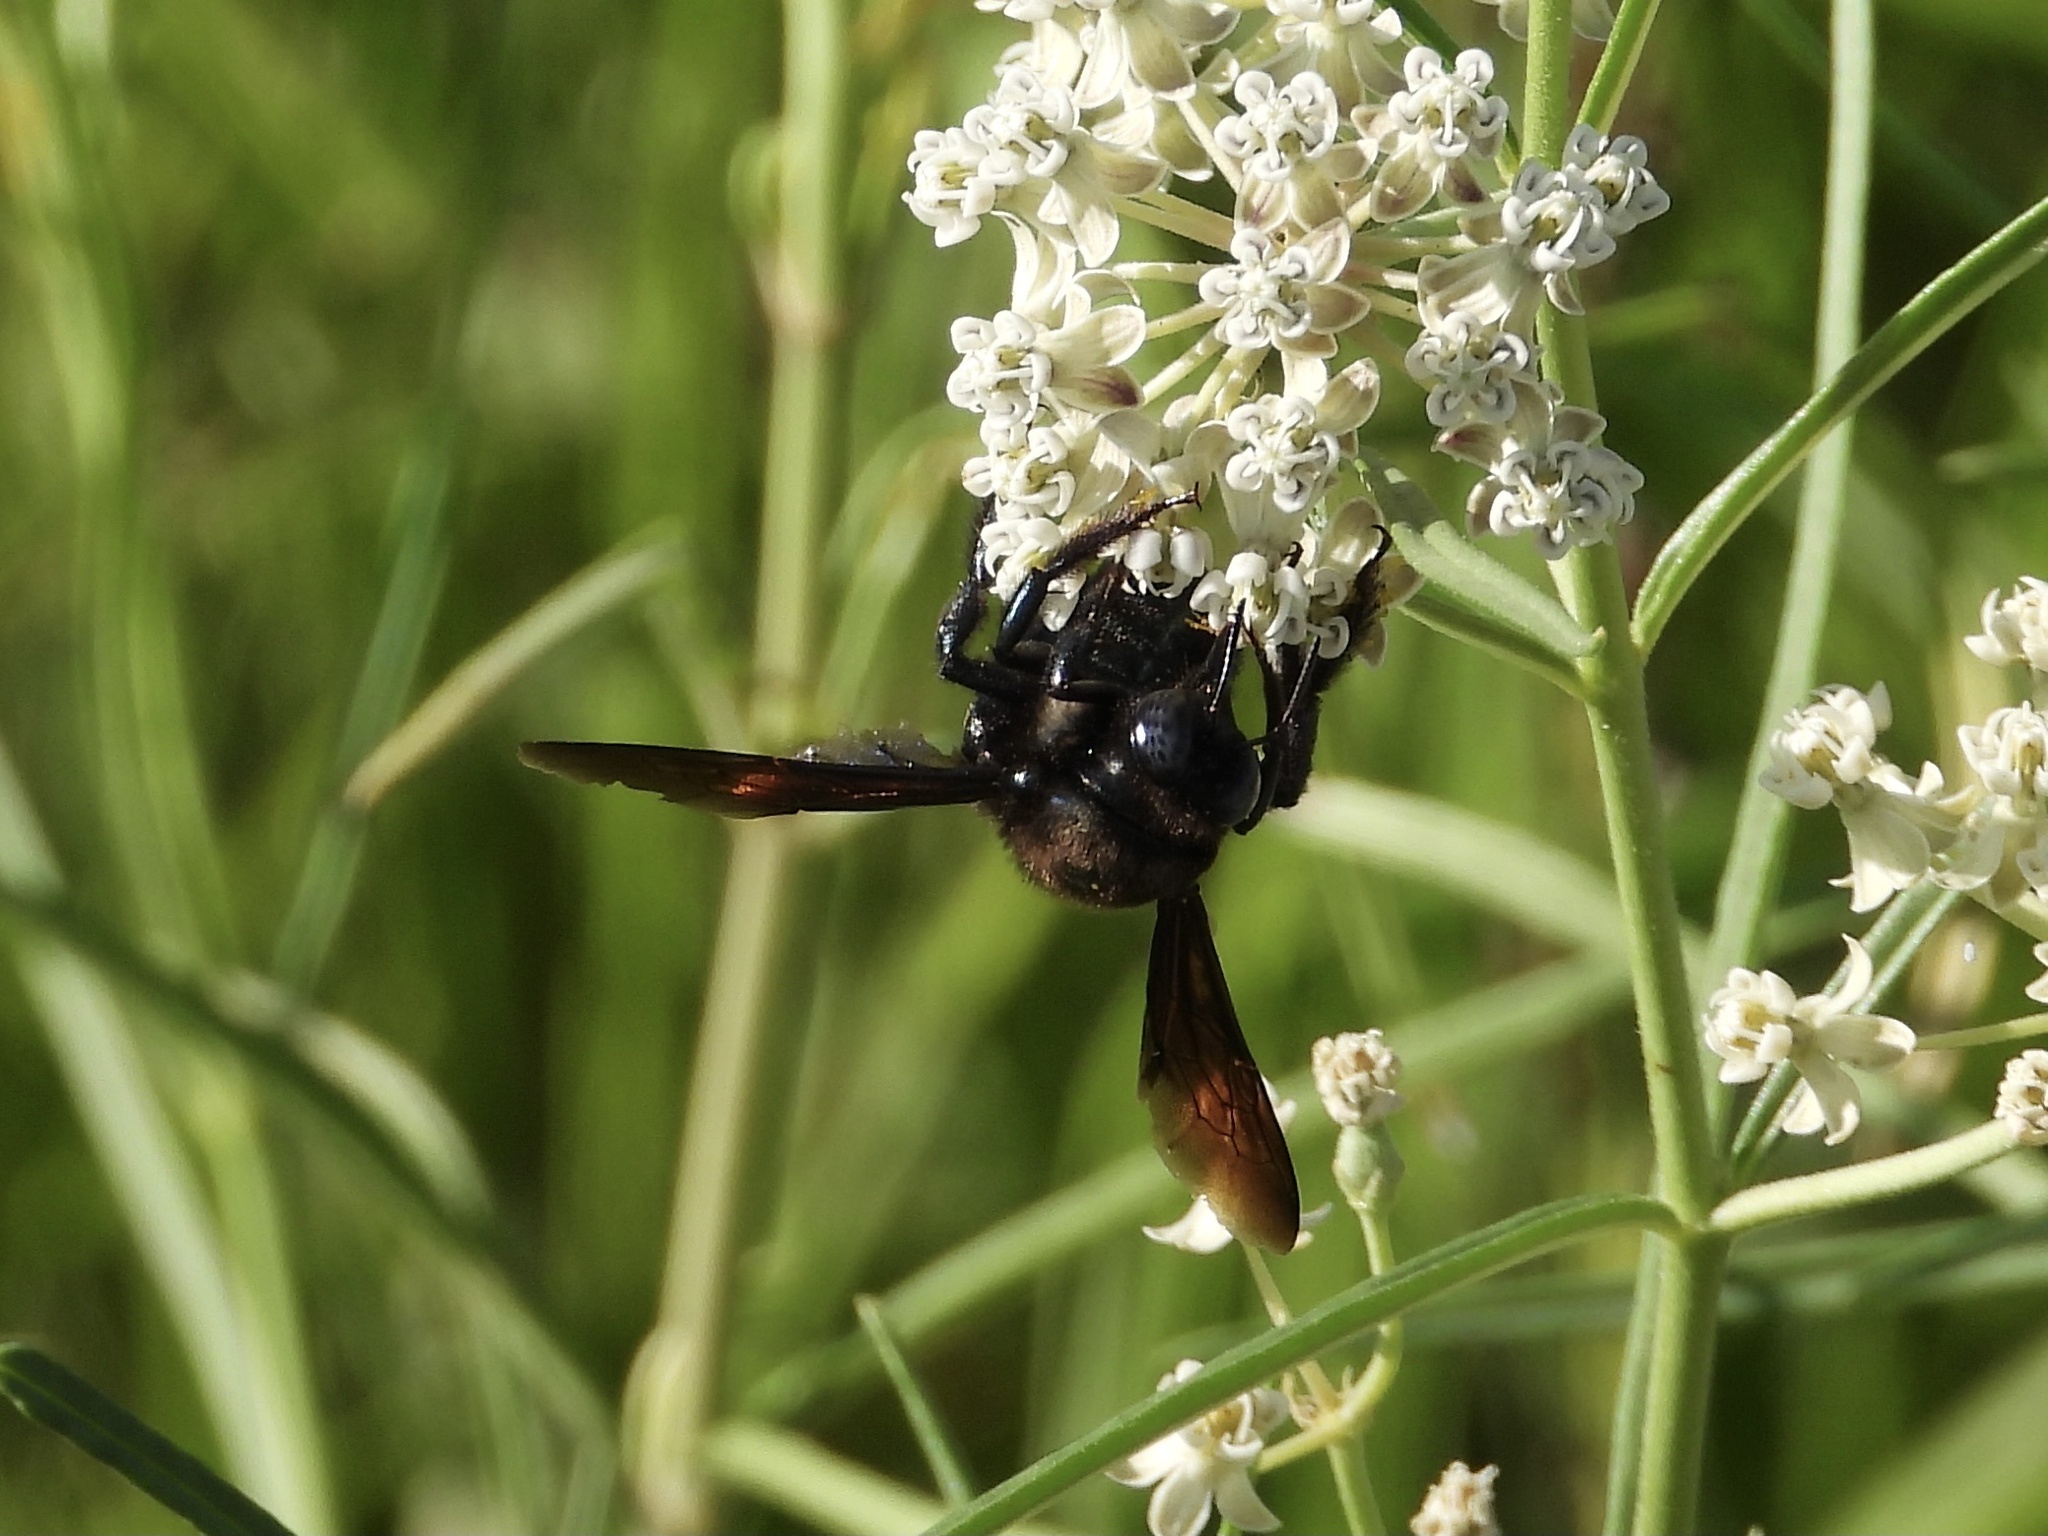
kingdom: Animalia
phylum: Arthropoda
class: Insecta
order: Hymenoptera
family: Apidae
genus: Xylocopa
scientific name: Xylocopa californica
